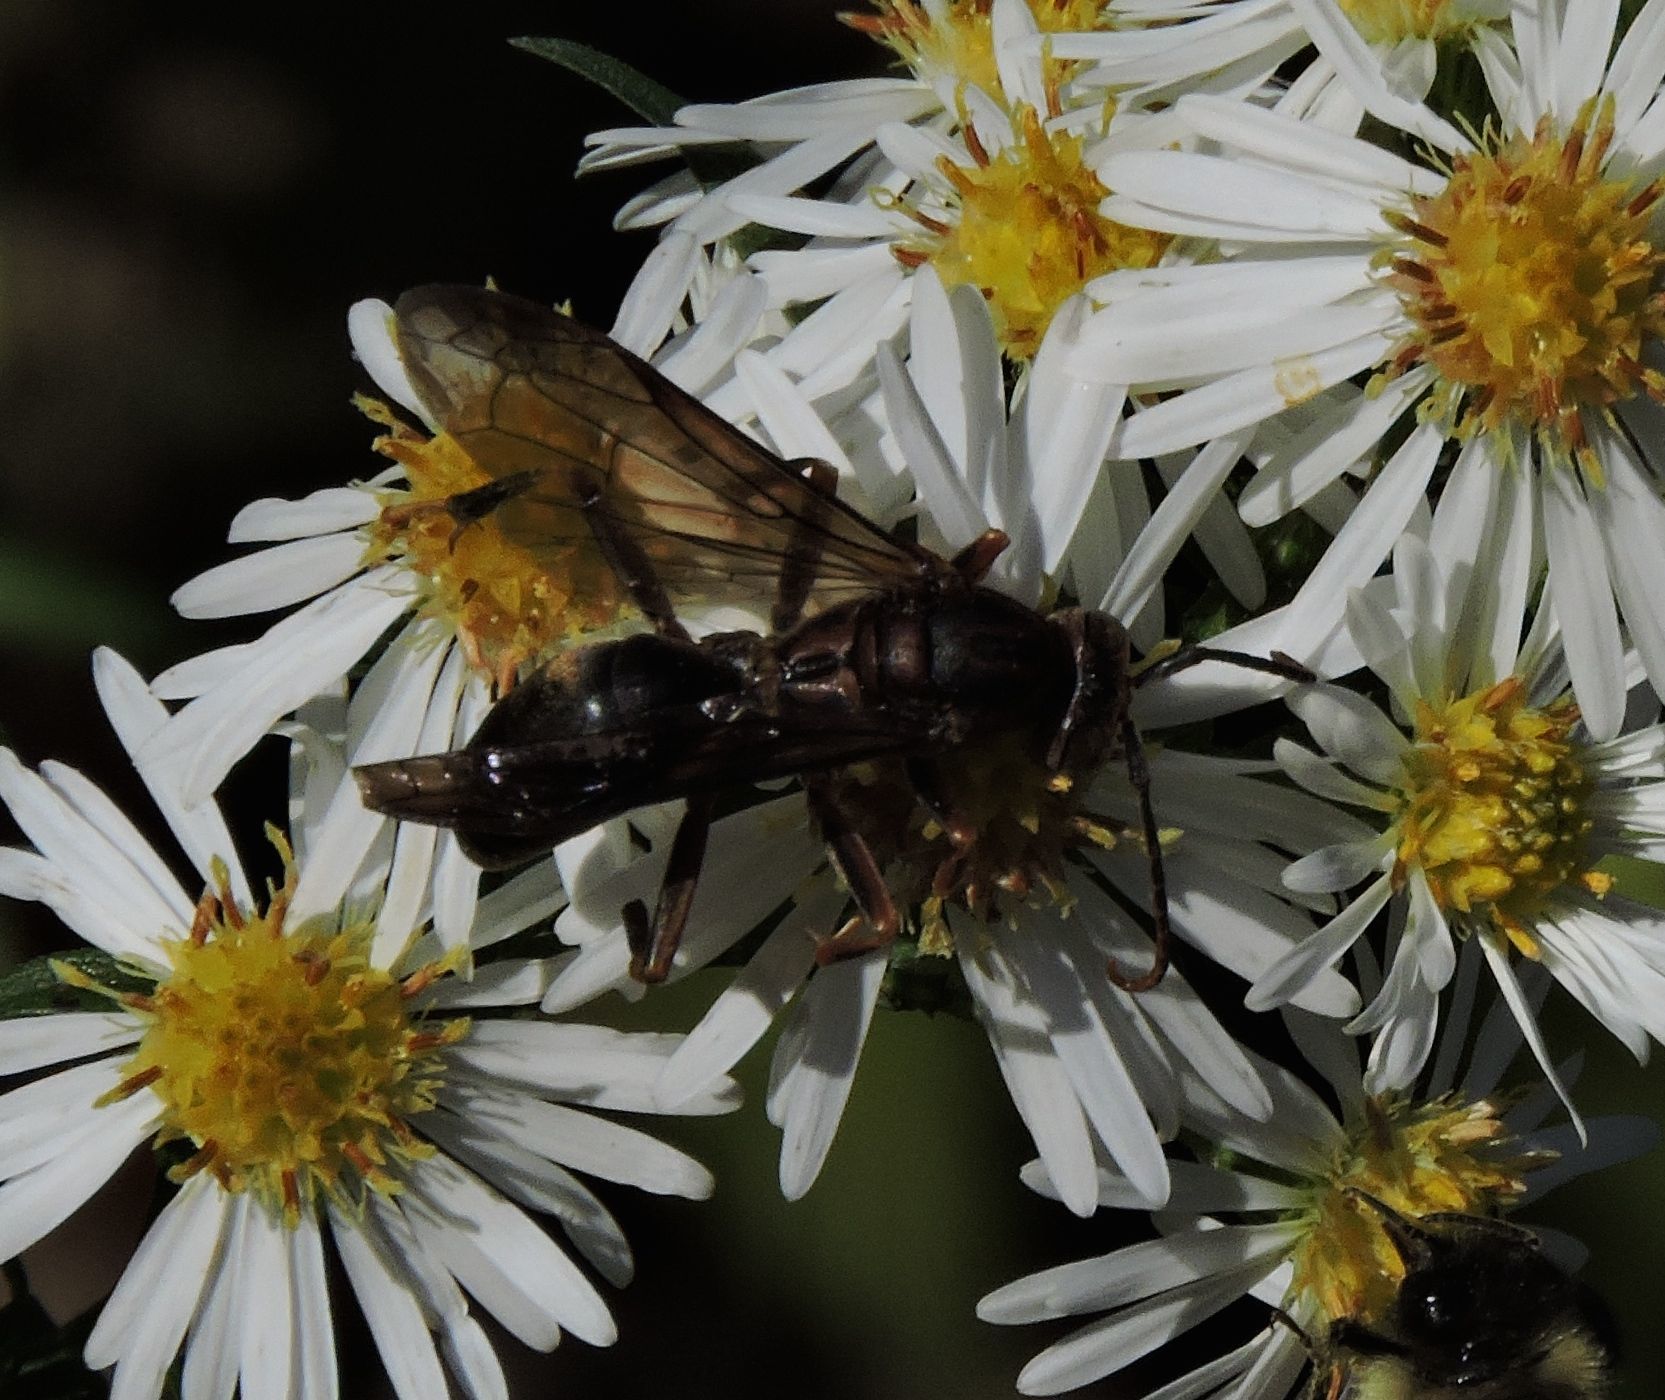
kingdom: Animalia
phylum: Arthropoda
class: Insecta
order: Hymenoptera
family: Eumenidae
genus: Polistes
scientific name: Polistes metricus
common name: Metric paper wasp
